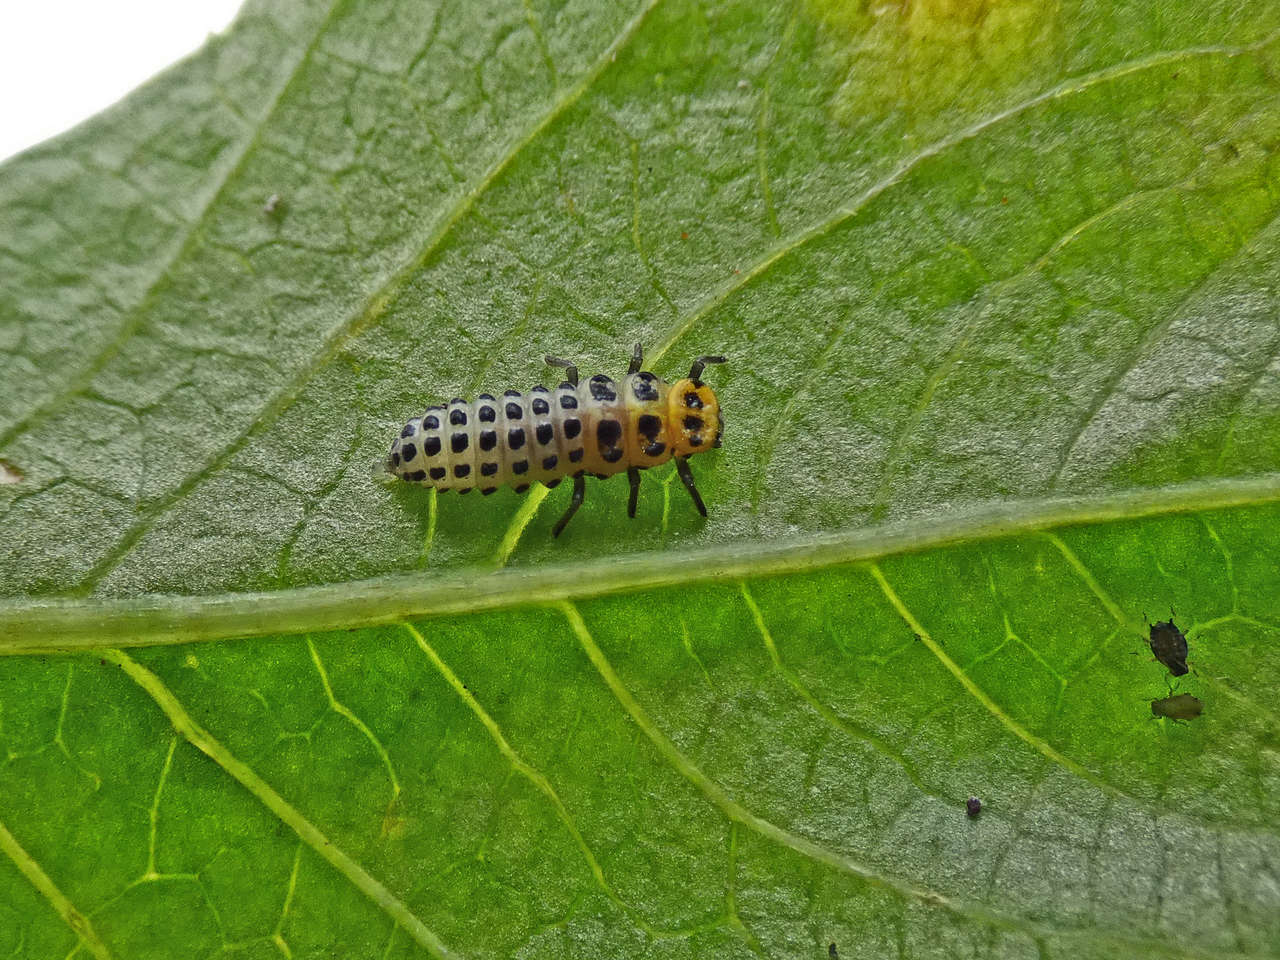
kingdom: Animalia
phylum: Arthropoda
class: Insecta
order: Coleoptera
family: Coccinellidae
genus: Illeis
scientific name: Illeis galbula
